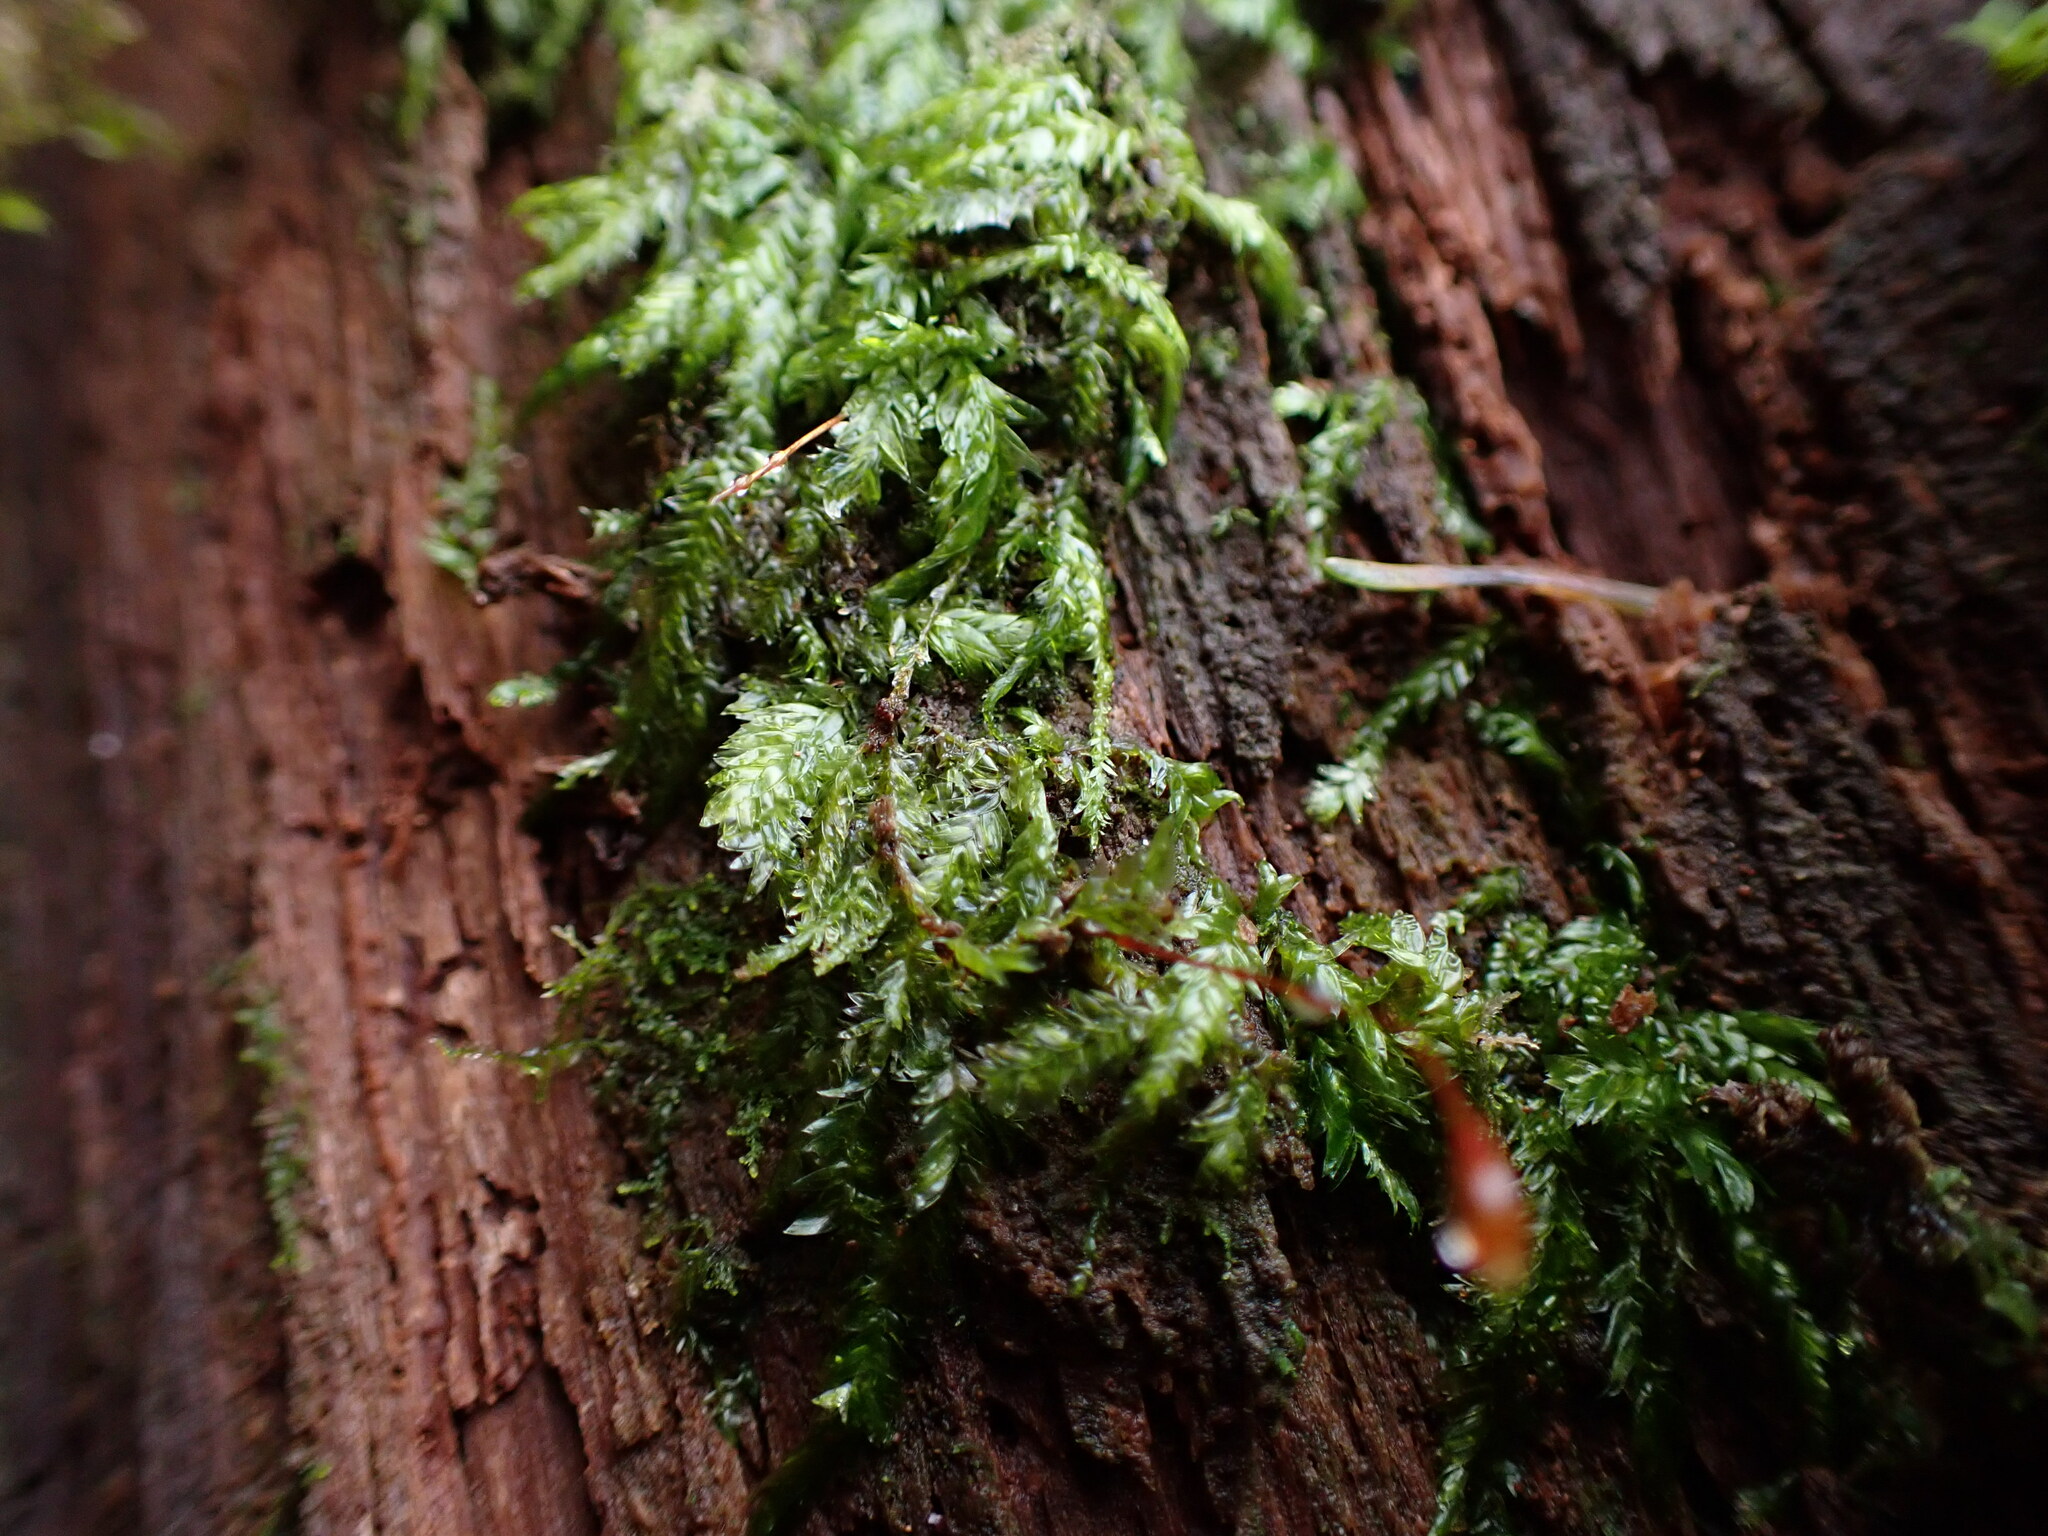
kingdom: Plantae
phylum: Bryophyta
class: Bryopsida
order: Hypnales
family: Plagiotheciaceae
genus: Plagiothecium
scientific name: Plagiothecium denticulatum
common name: Dented silk moss
